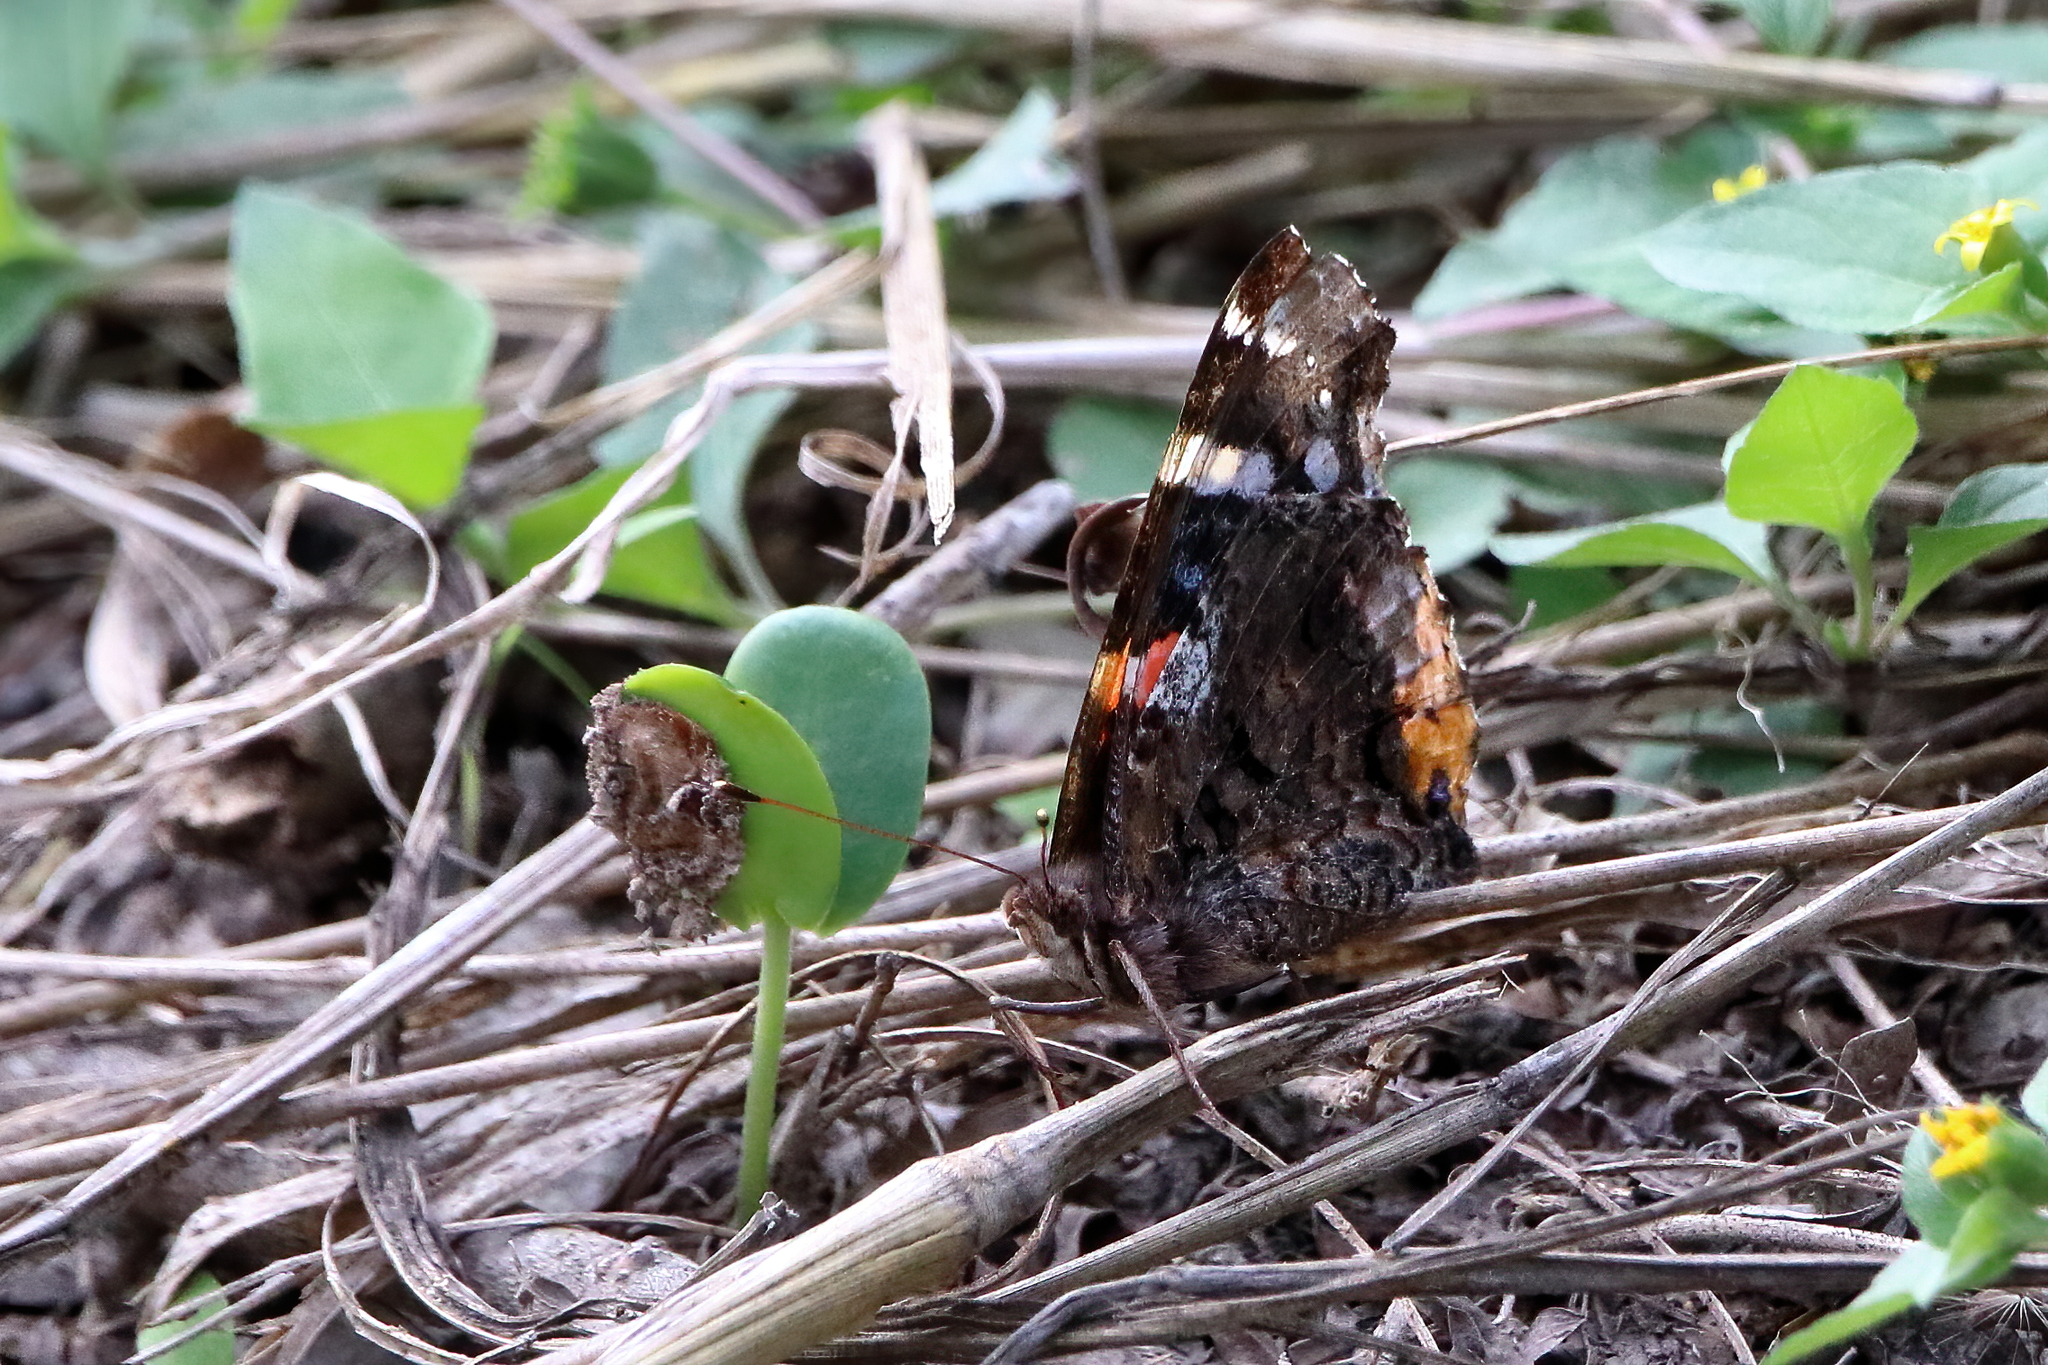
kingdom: Animalia
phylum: Arthropoda
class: Insecta
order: Lepidoptera
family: Nymphalidae
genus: Vanessa
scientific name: Vanessa atalanta
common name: Red admiral
